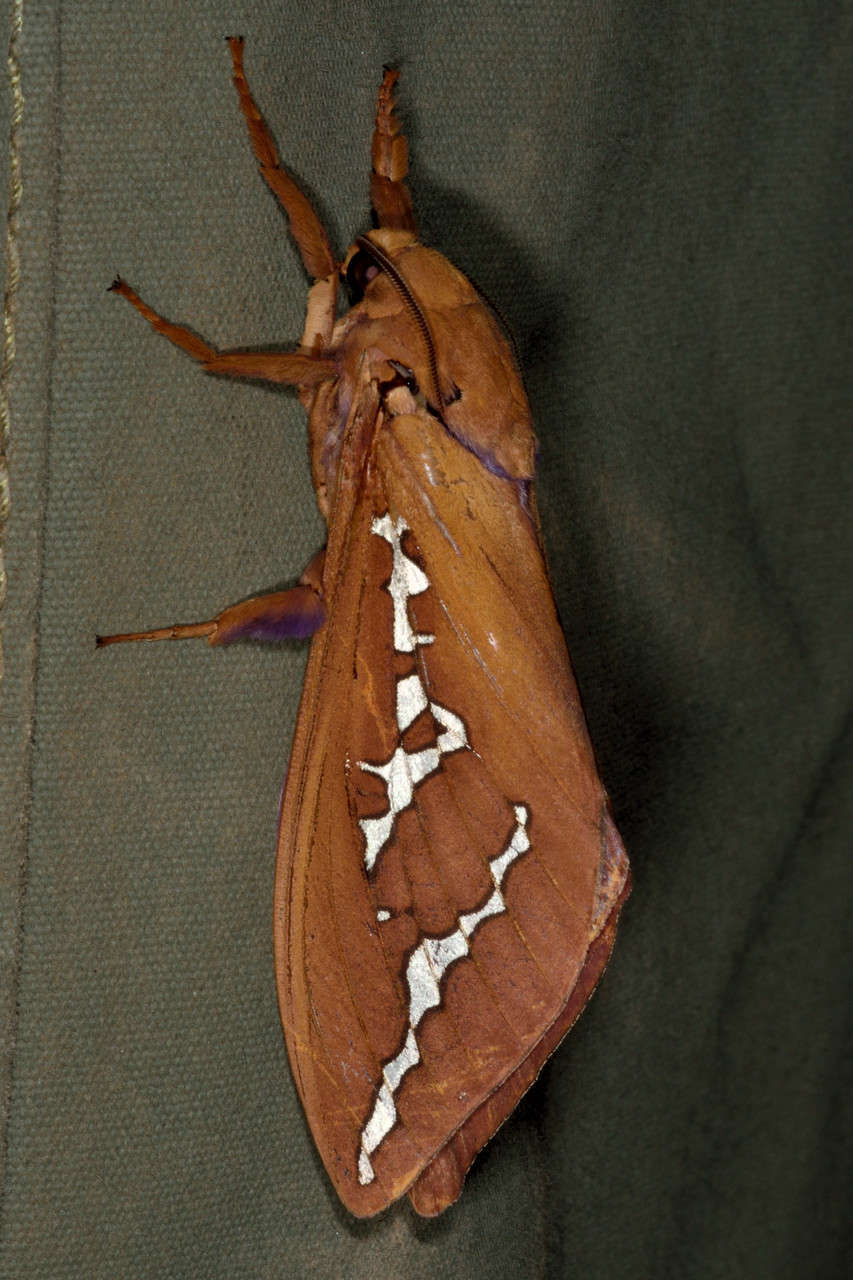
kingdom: Animalia
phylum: Arthropoda
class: Insecta
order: Lepidoptera
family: Hepialidae
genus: Abantiades
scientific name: Abantiades hyalinatus
